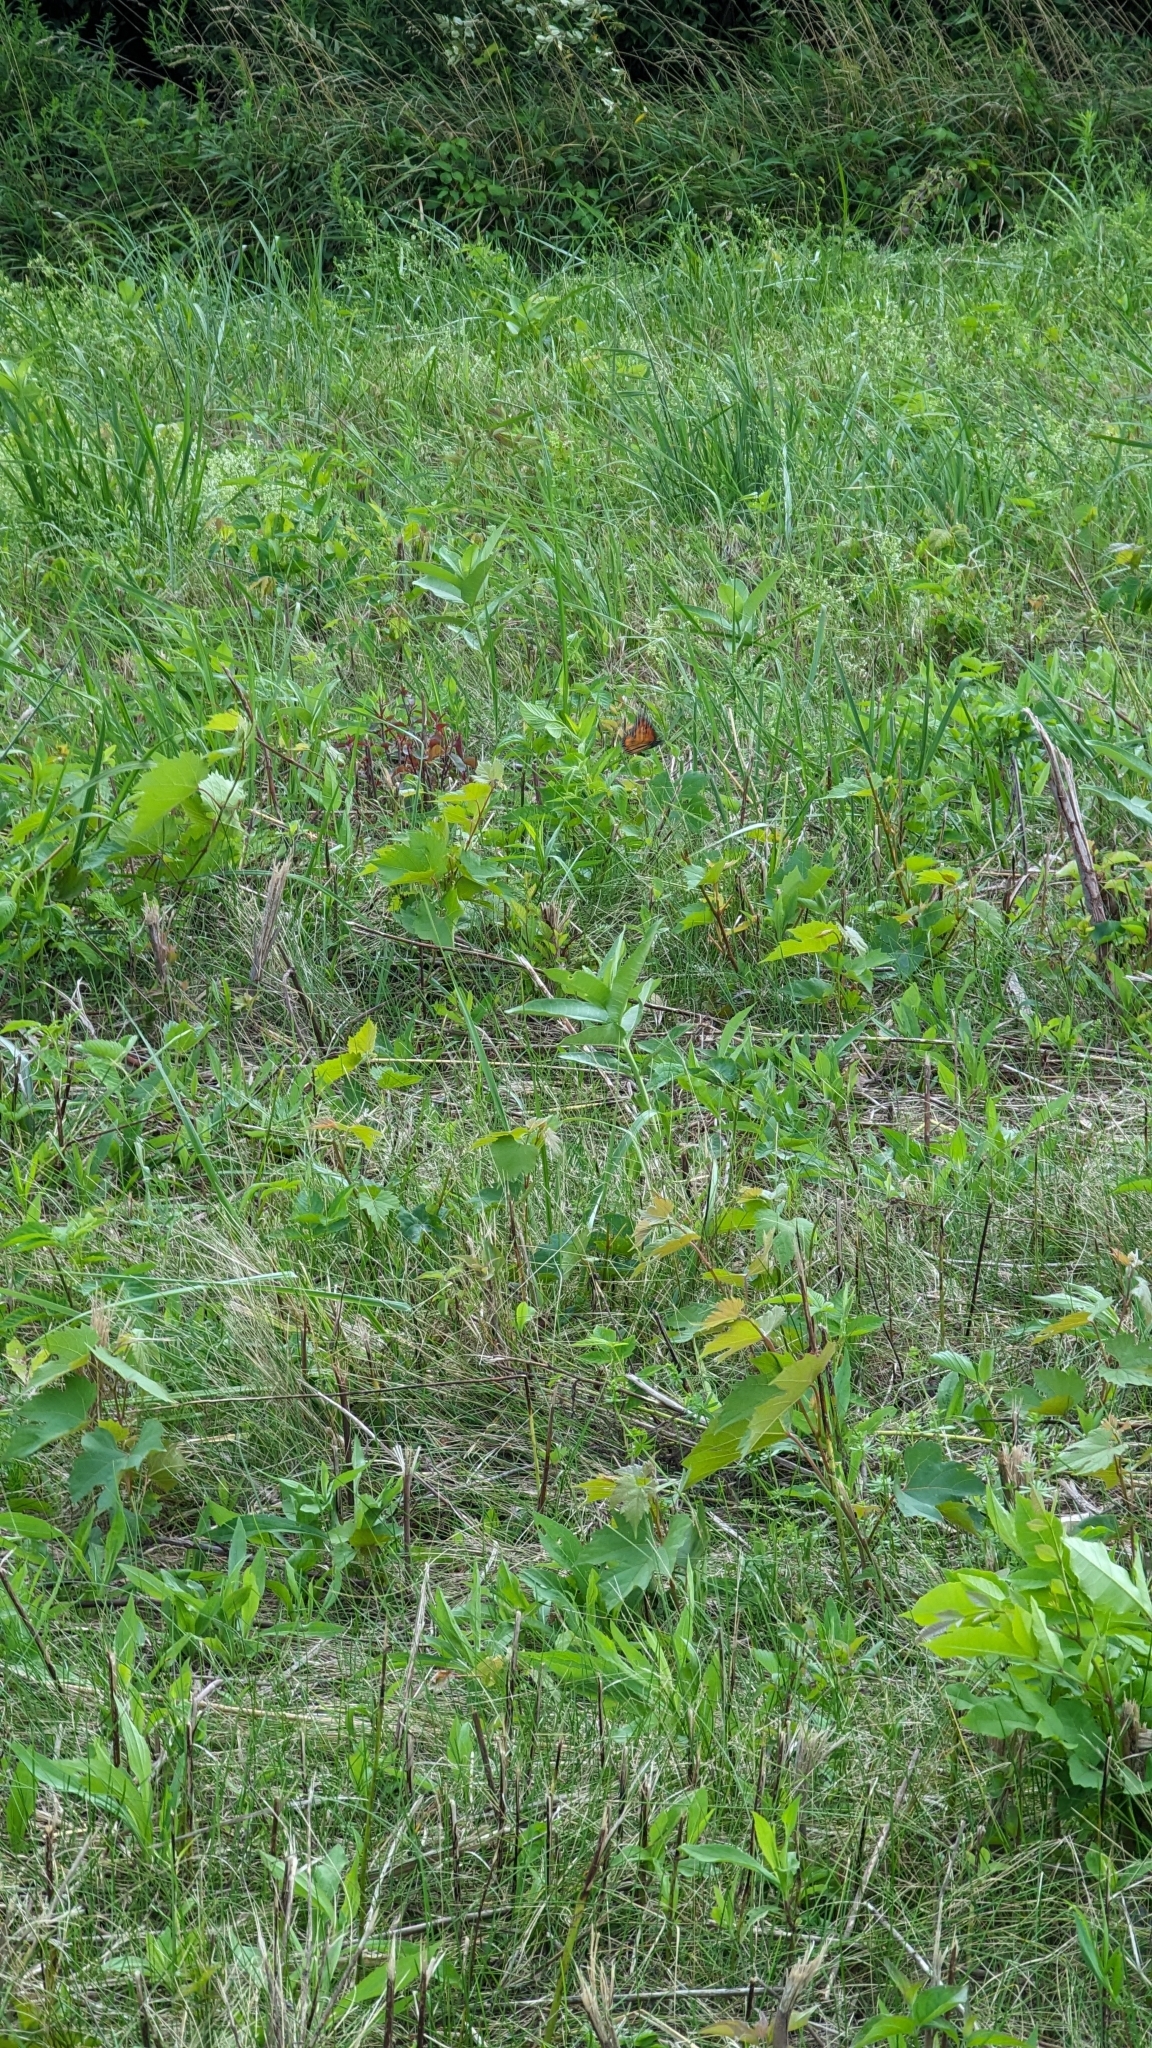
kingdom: Animalia
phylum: Arthropoda
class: Insecta
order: Lepidoptera
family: Nymphalidae
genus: Danaus
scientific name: Danaus plexippus
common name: Monarch
